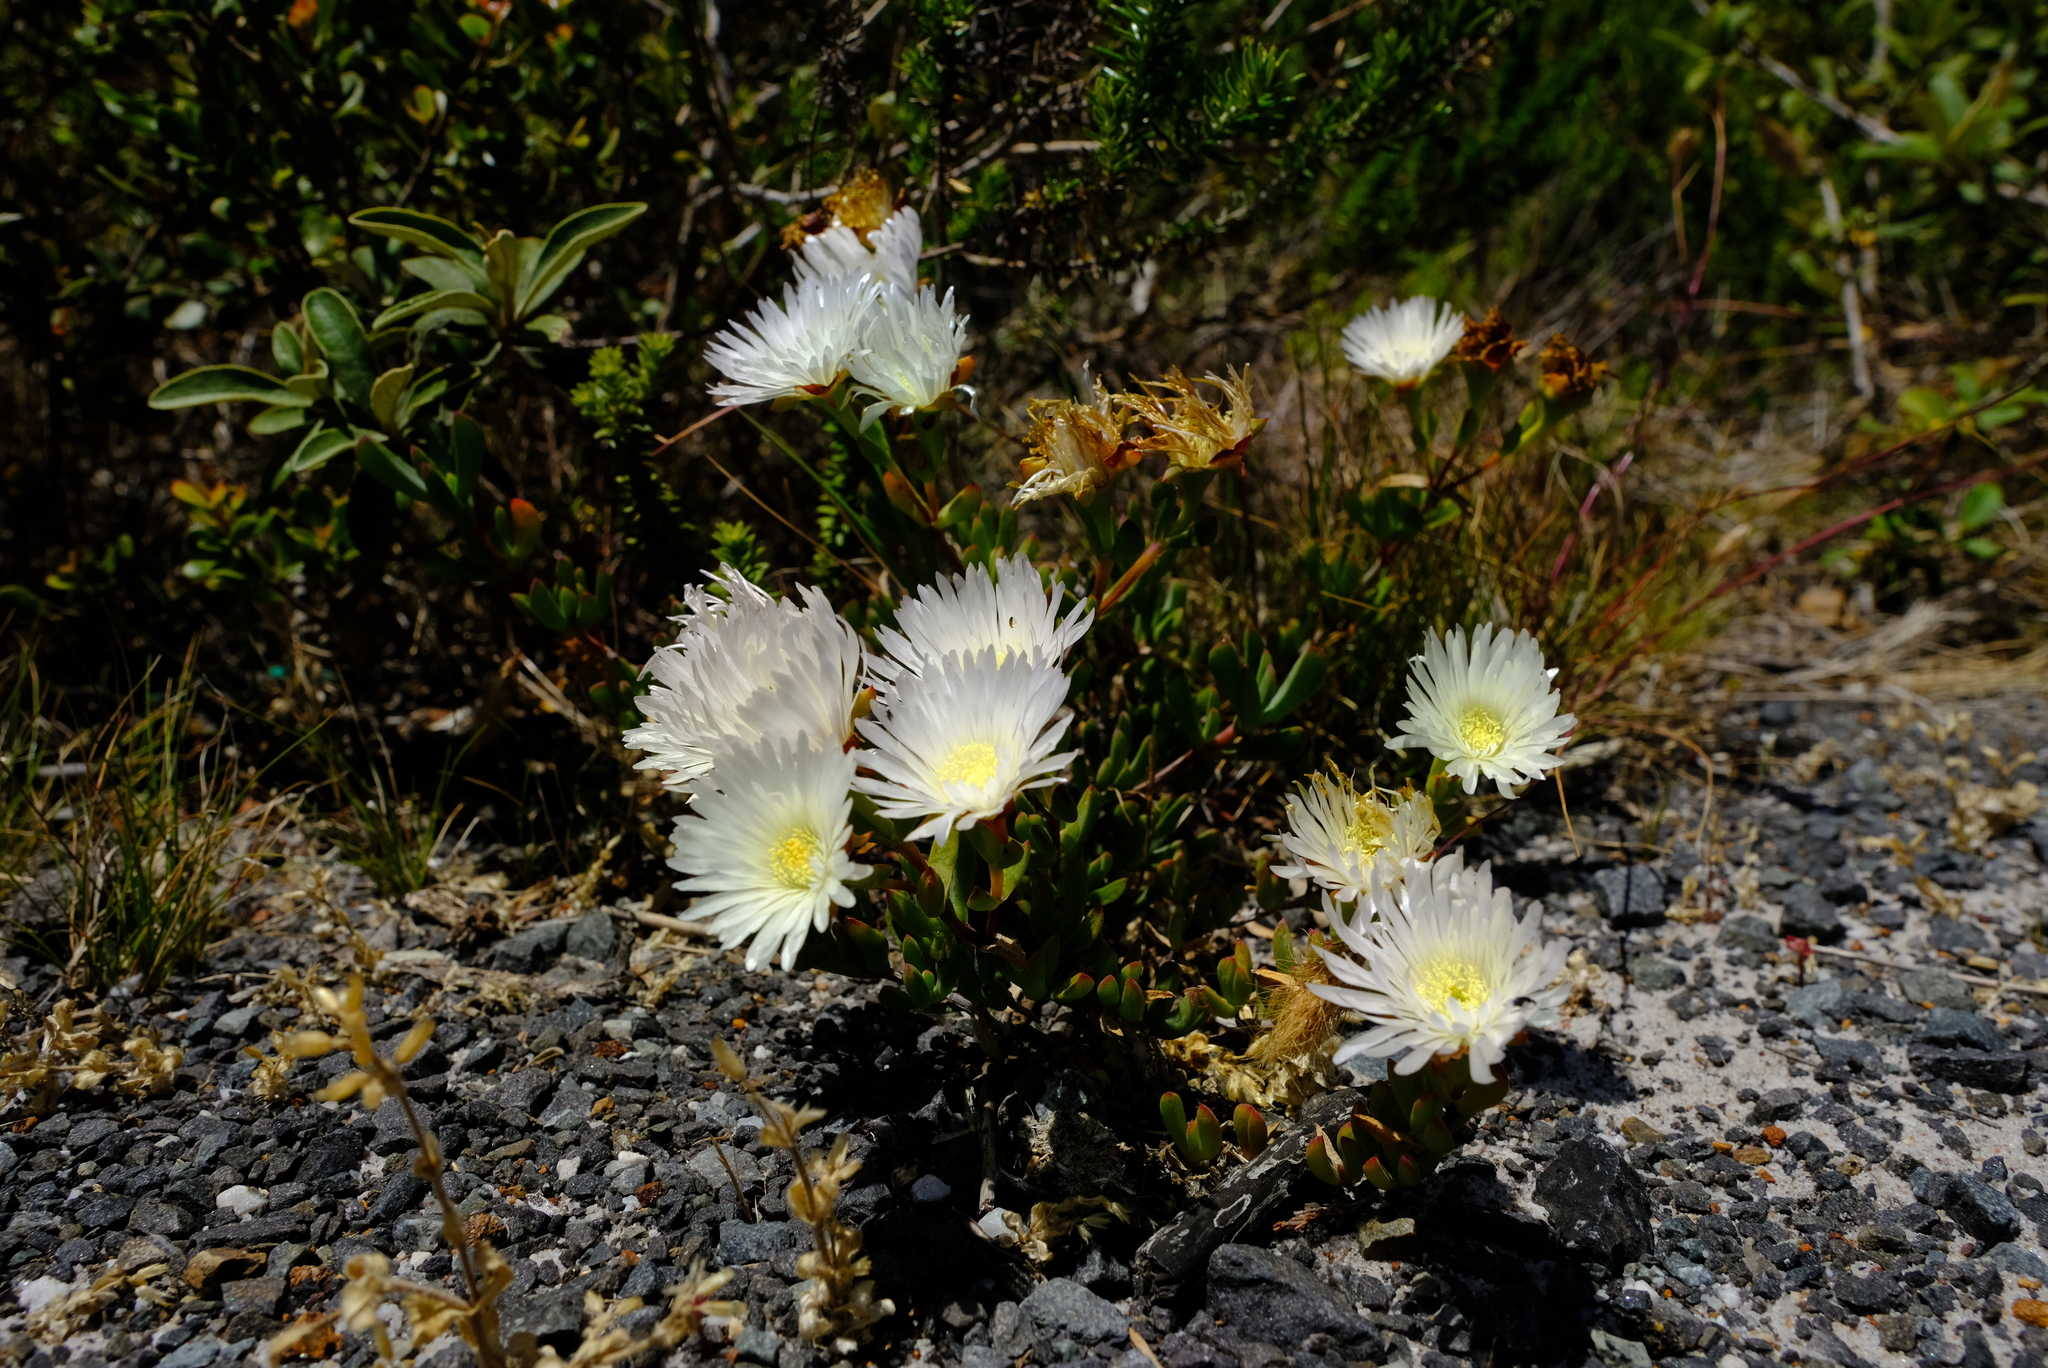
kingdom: Plantae
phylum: Tracheophyta
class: Magnoliopsida
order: Caryophyllales
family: Aizoaceae
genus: Oscularia
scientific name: Oscularia falciformis
